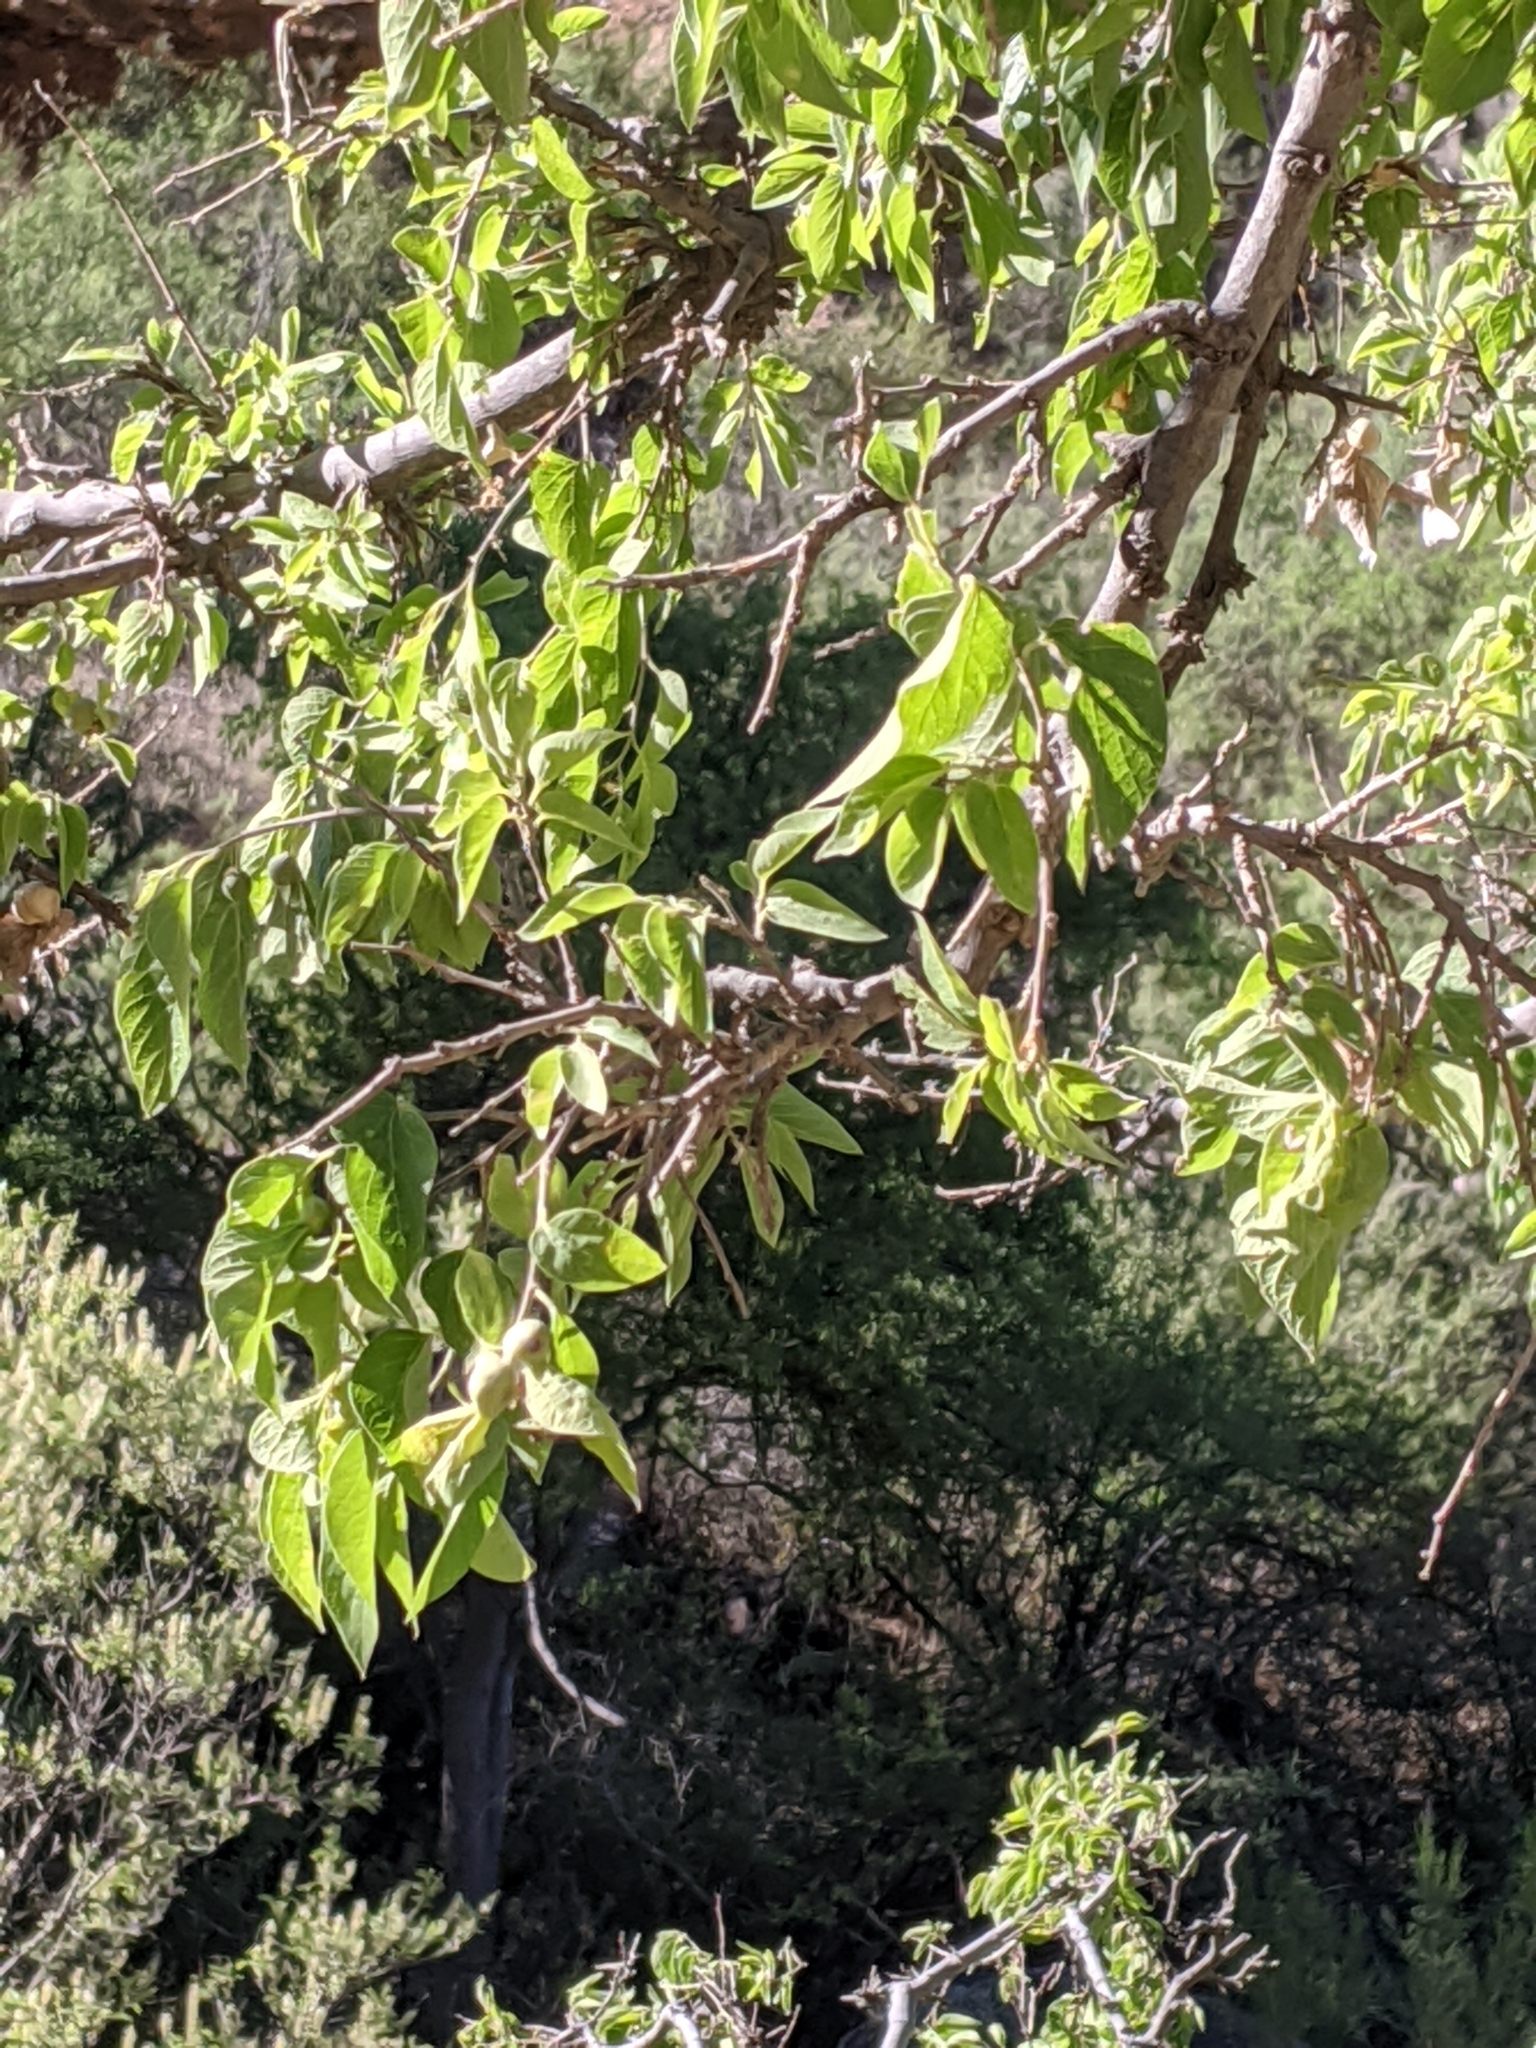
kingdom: Plantae
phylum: Tracheophyta
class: Magnoliopsida
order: Rosales
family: Cannabaceae
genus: Celtis
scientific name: Celtis reticulata
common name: Netleaf hackberry
